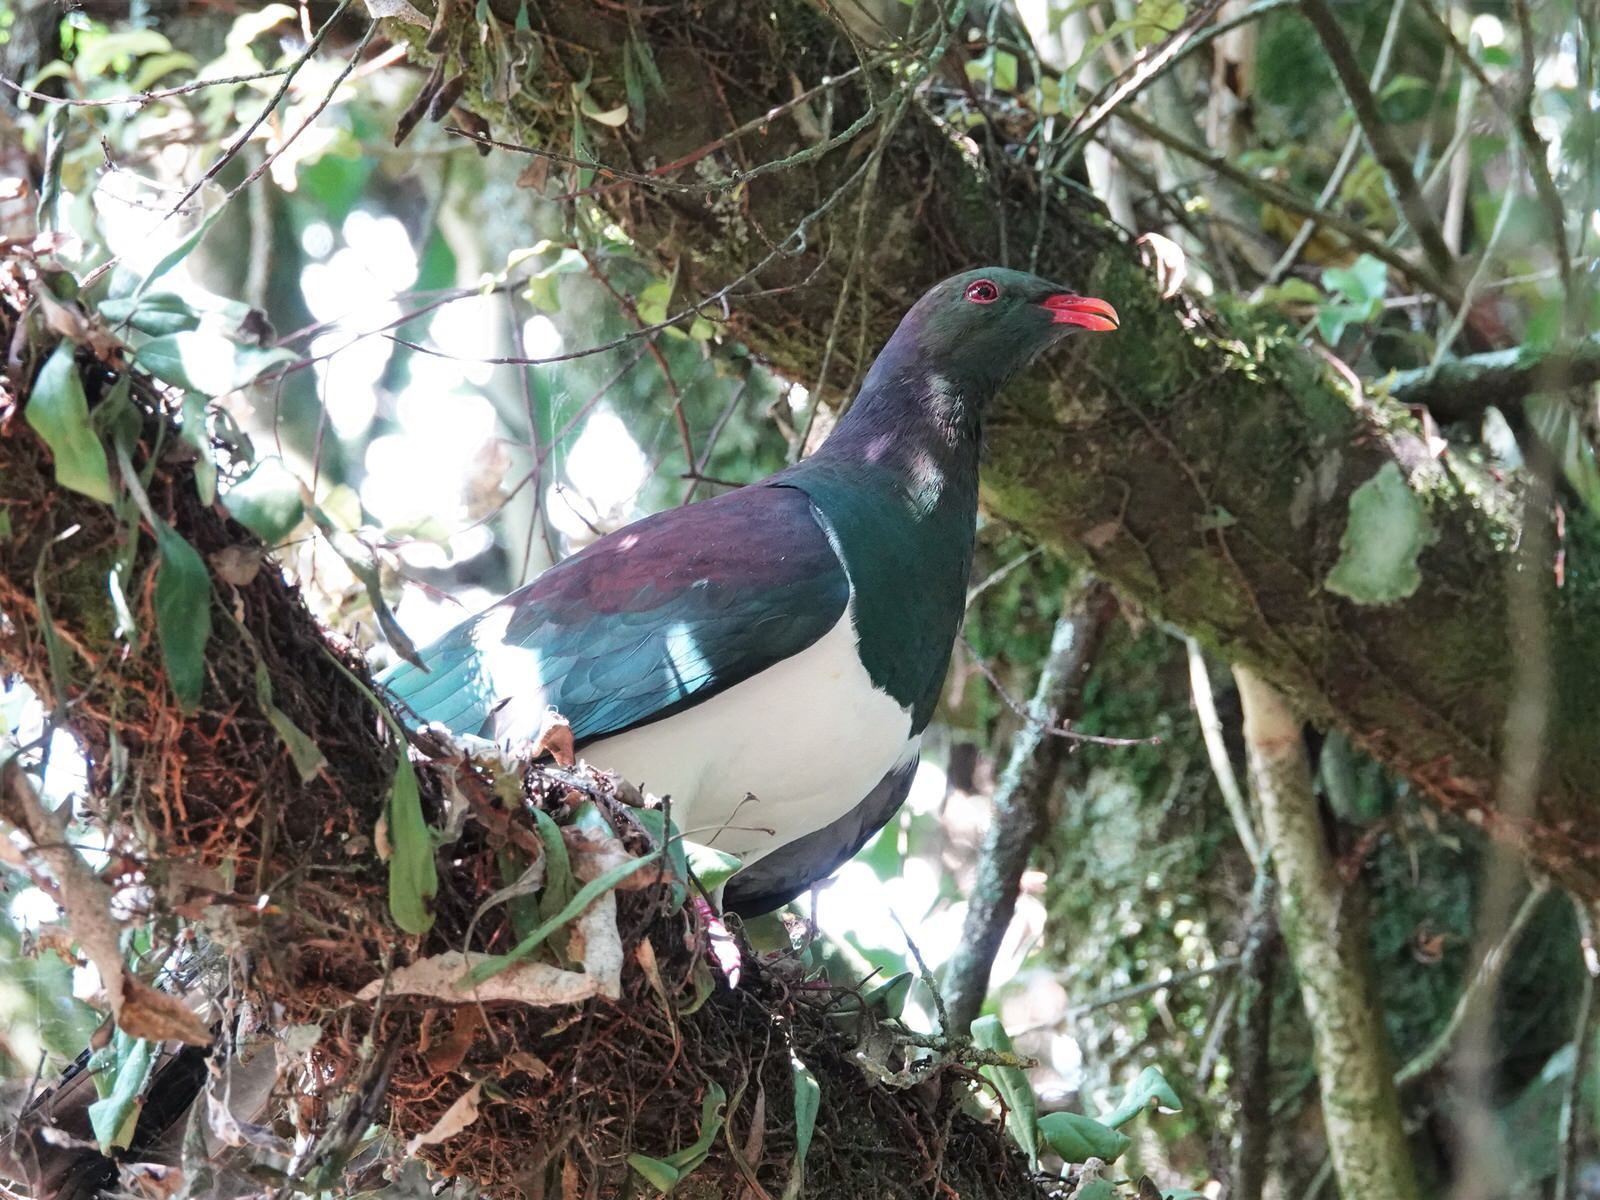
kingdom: Animalia
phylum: Chordata
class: Aves
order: Columbiformes
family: Columbidae
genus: Hemiphaga
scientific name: Hemiphaga novaeseelandiae
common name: New zealand pigeon
